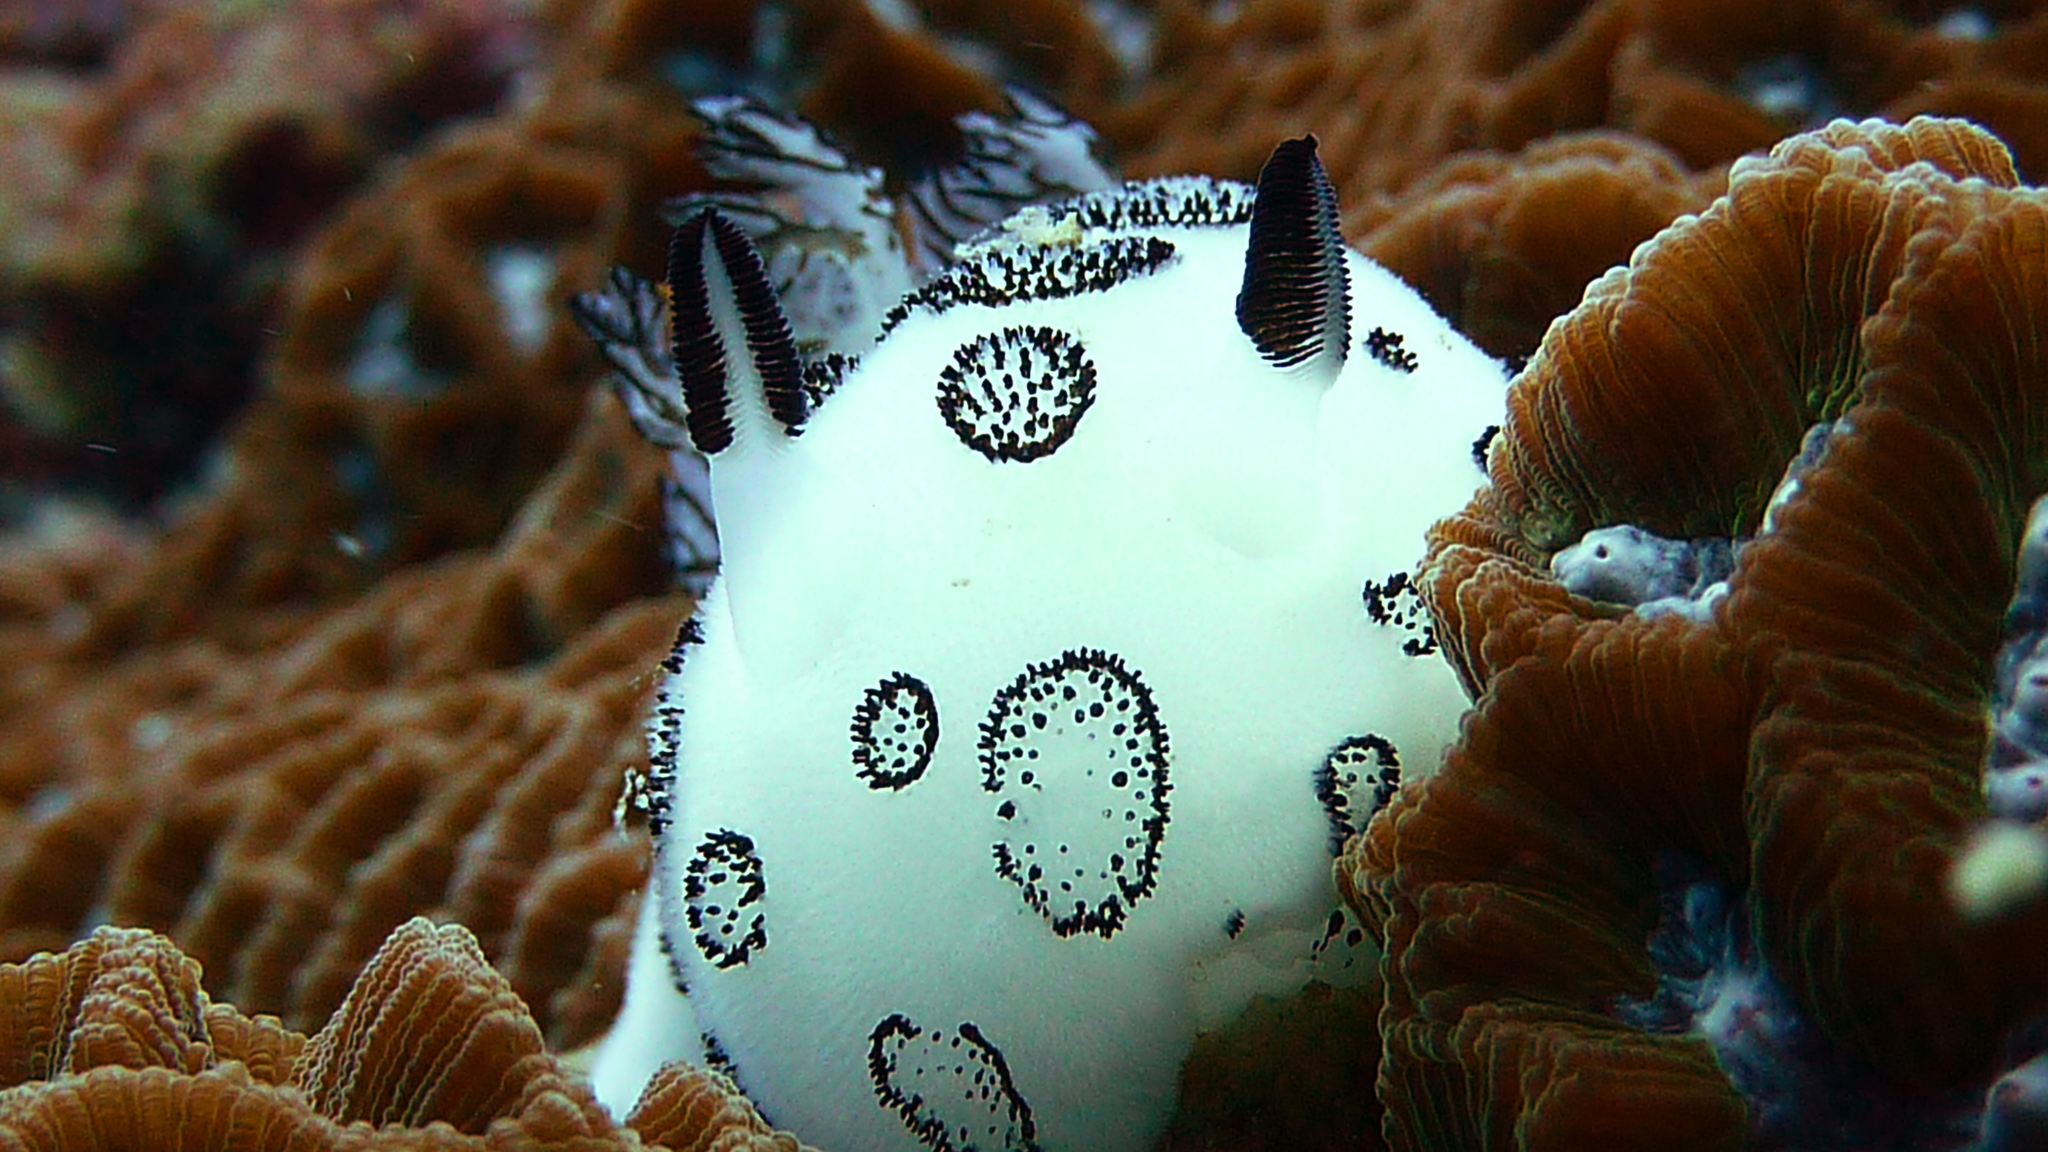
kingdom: Animalia
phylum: Mollusca
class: Gastropoda
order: Nudibranchia
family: Discodorididae
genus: Jorunna
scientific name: Jorunna funebris
